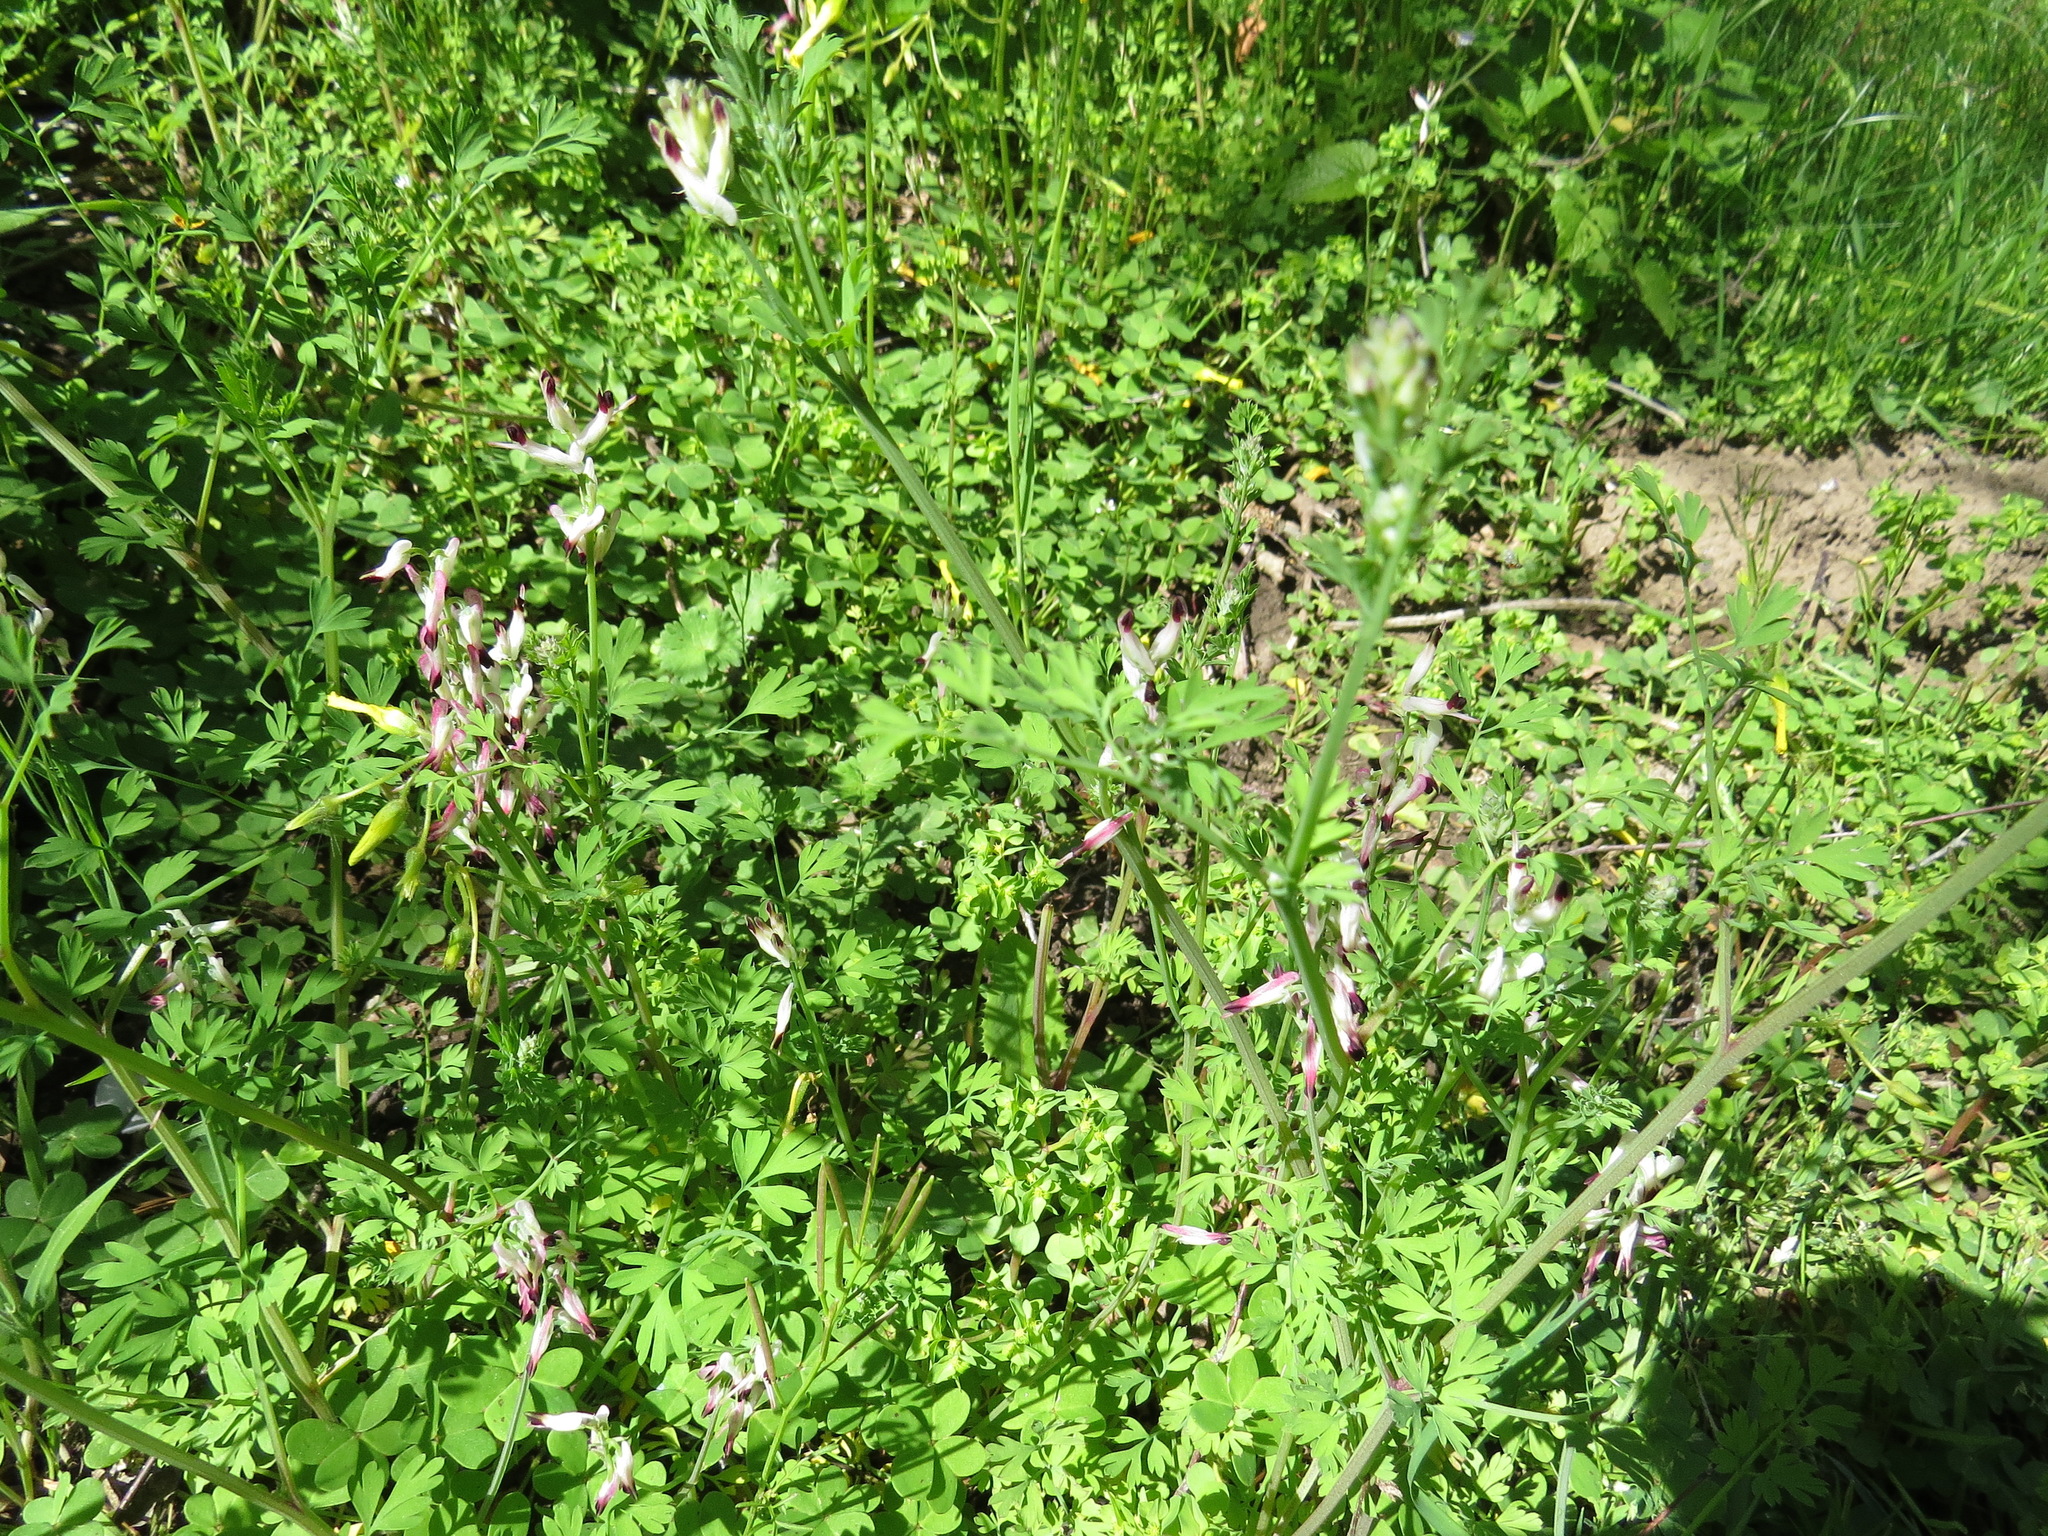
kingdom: Plantae
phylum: Tracheophyta
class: Magnoliopsida
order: Ranunculales
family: Papaveraceae
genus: Fumaria
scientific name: Fumaria capreolata
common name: White ramping-fumitory
